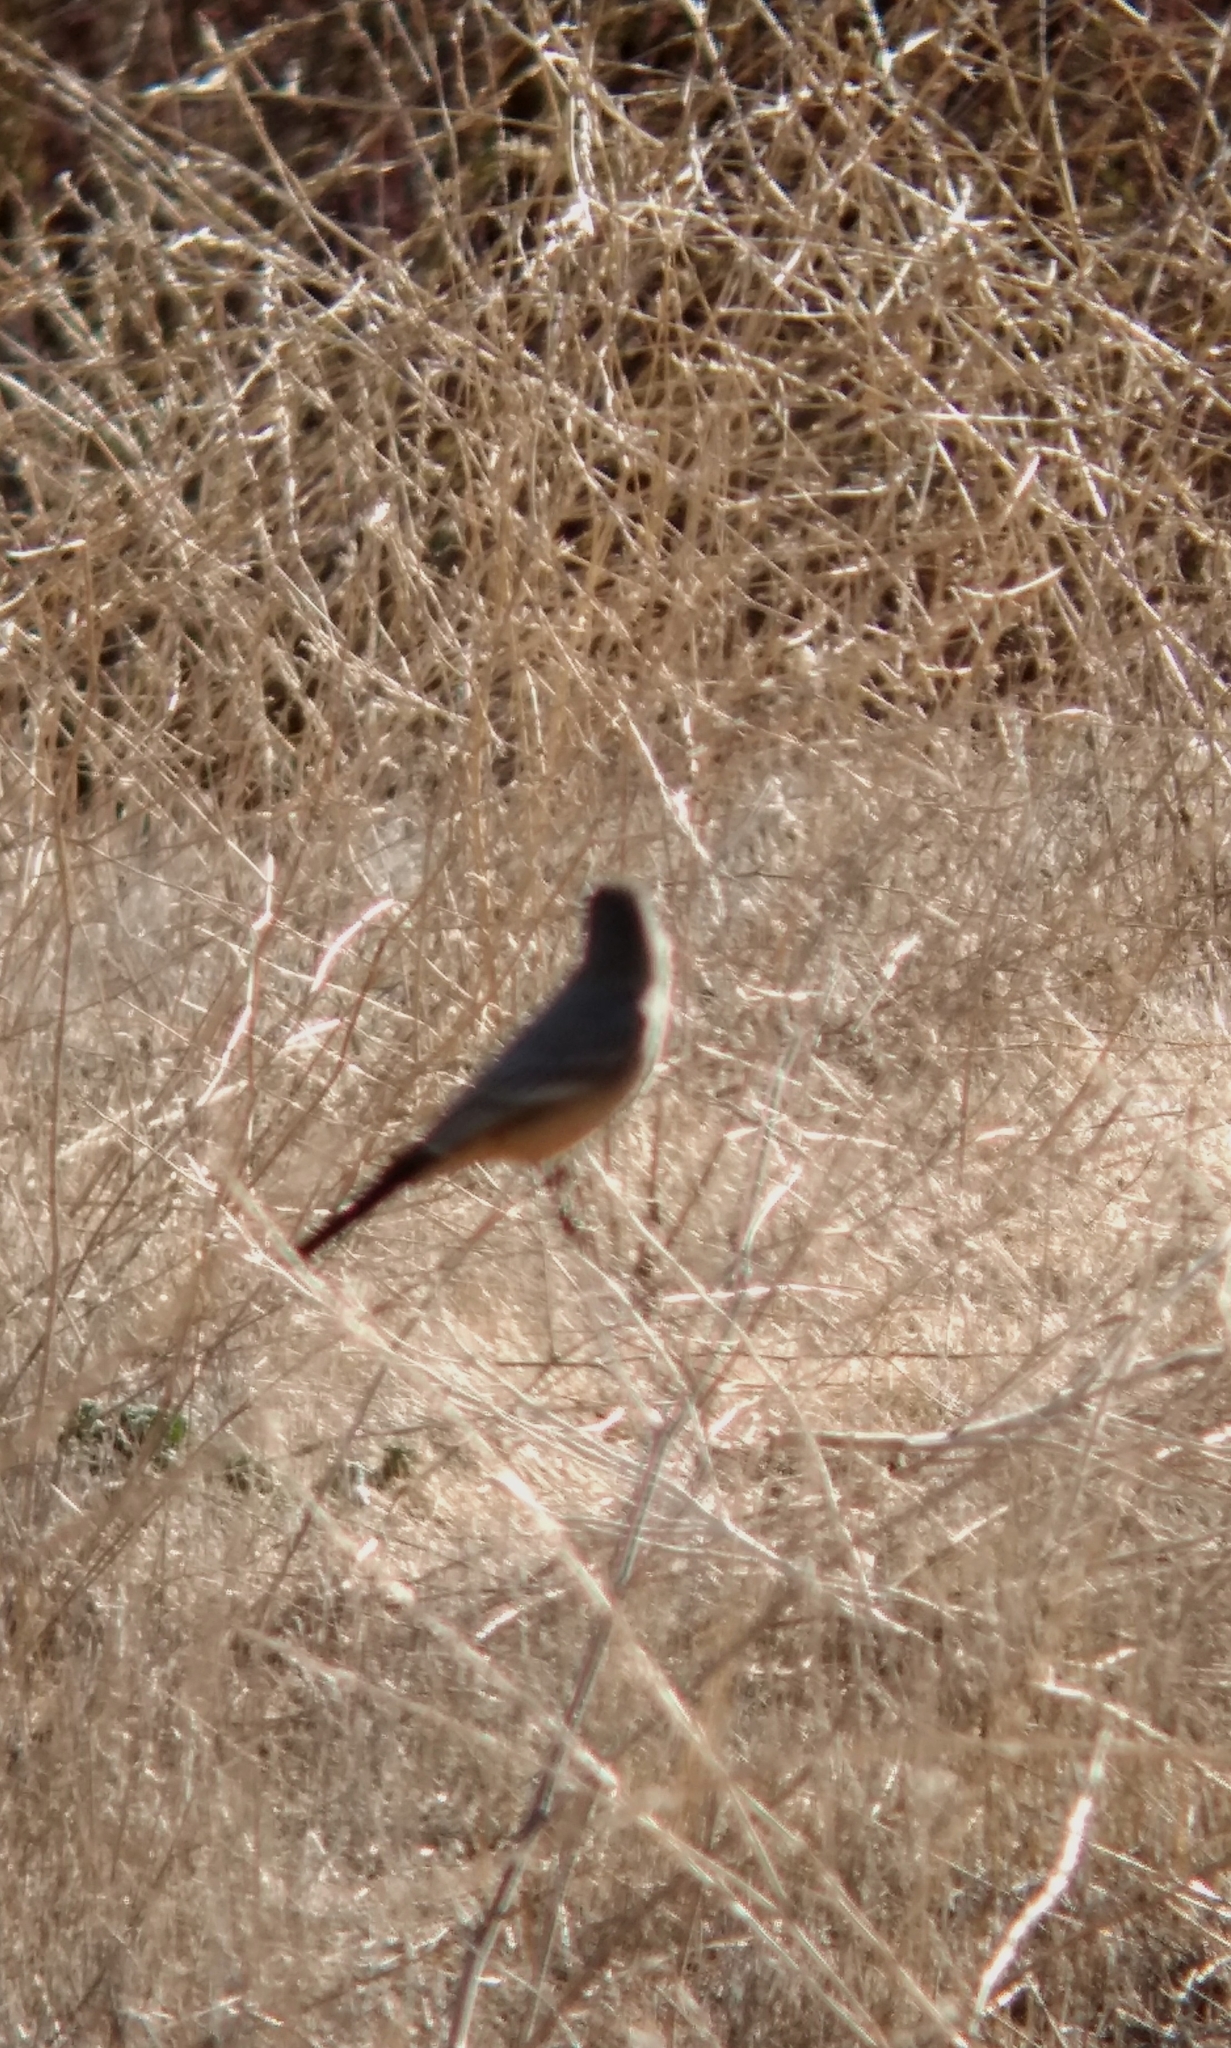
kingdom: Animalia
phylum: Chordata
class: Aves
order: Passeriformes
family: Tyrannidae
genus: Sayornis
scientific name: Sayornis saya
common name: Say's phoebe
